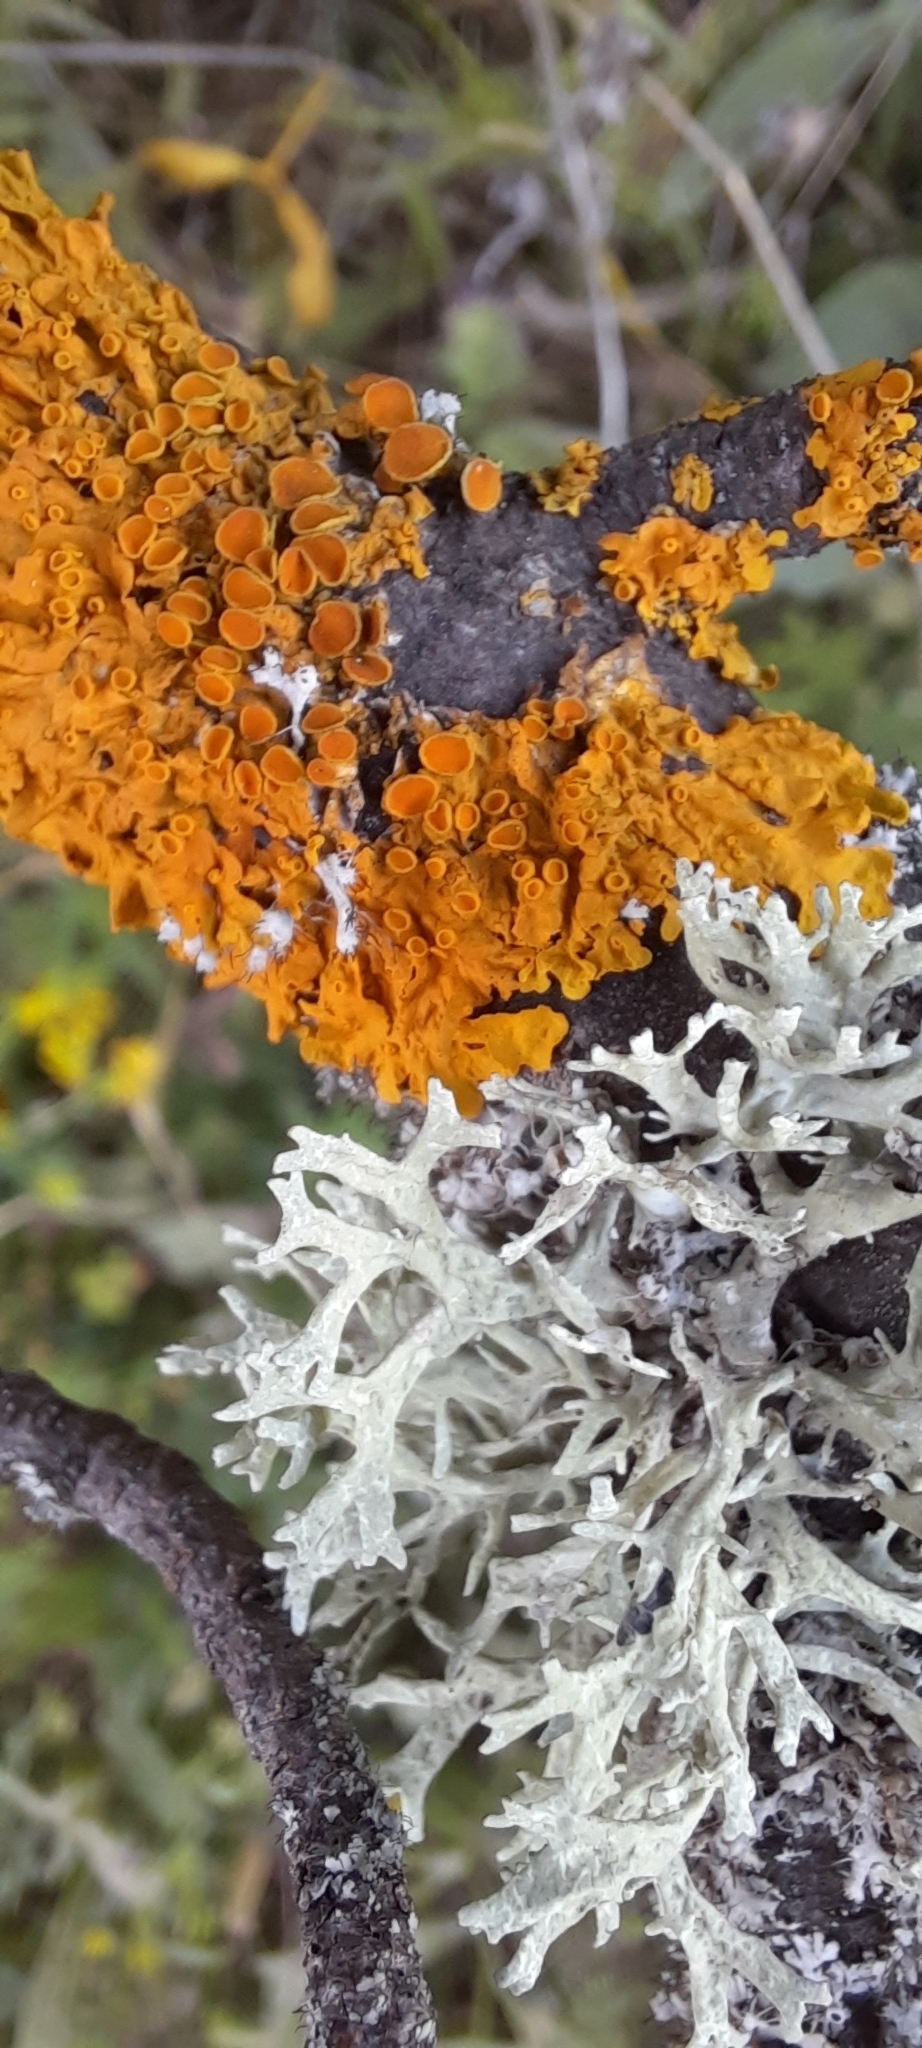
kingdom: Fungi
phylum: Ascomycota
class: Lecanoromycetes
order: Teloschistales
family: Teloschistaceae
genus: Xanthoria
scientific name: Xanthoria parietina
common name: Common orange lichen
